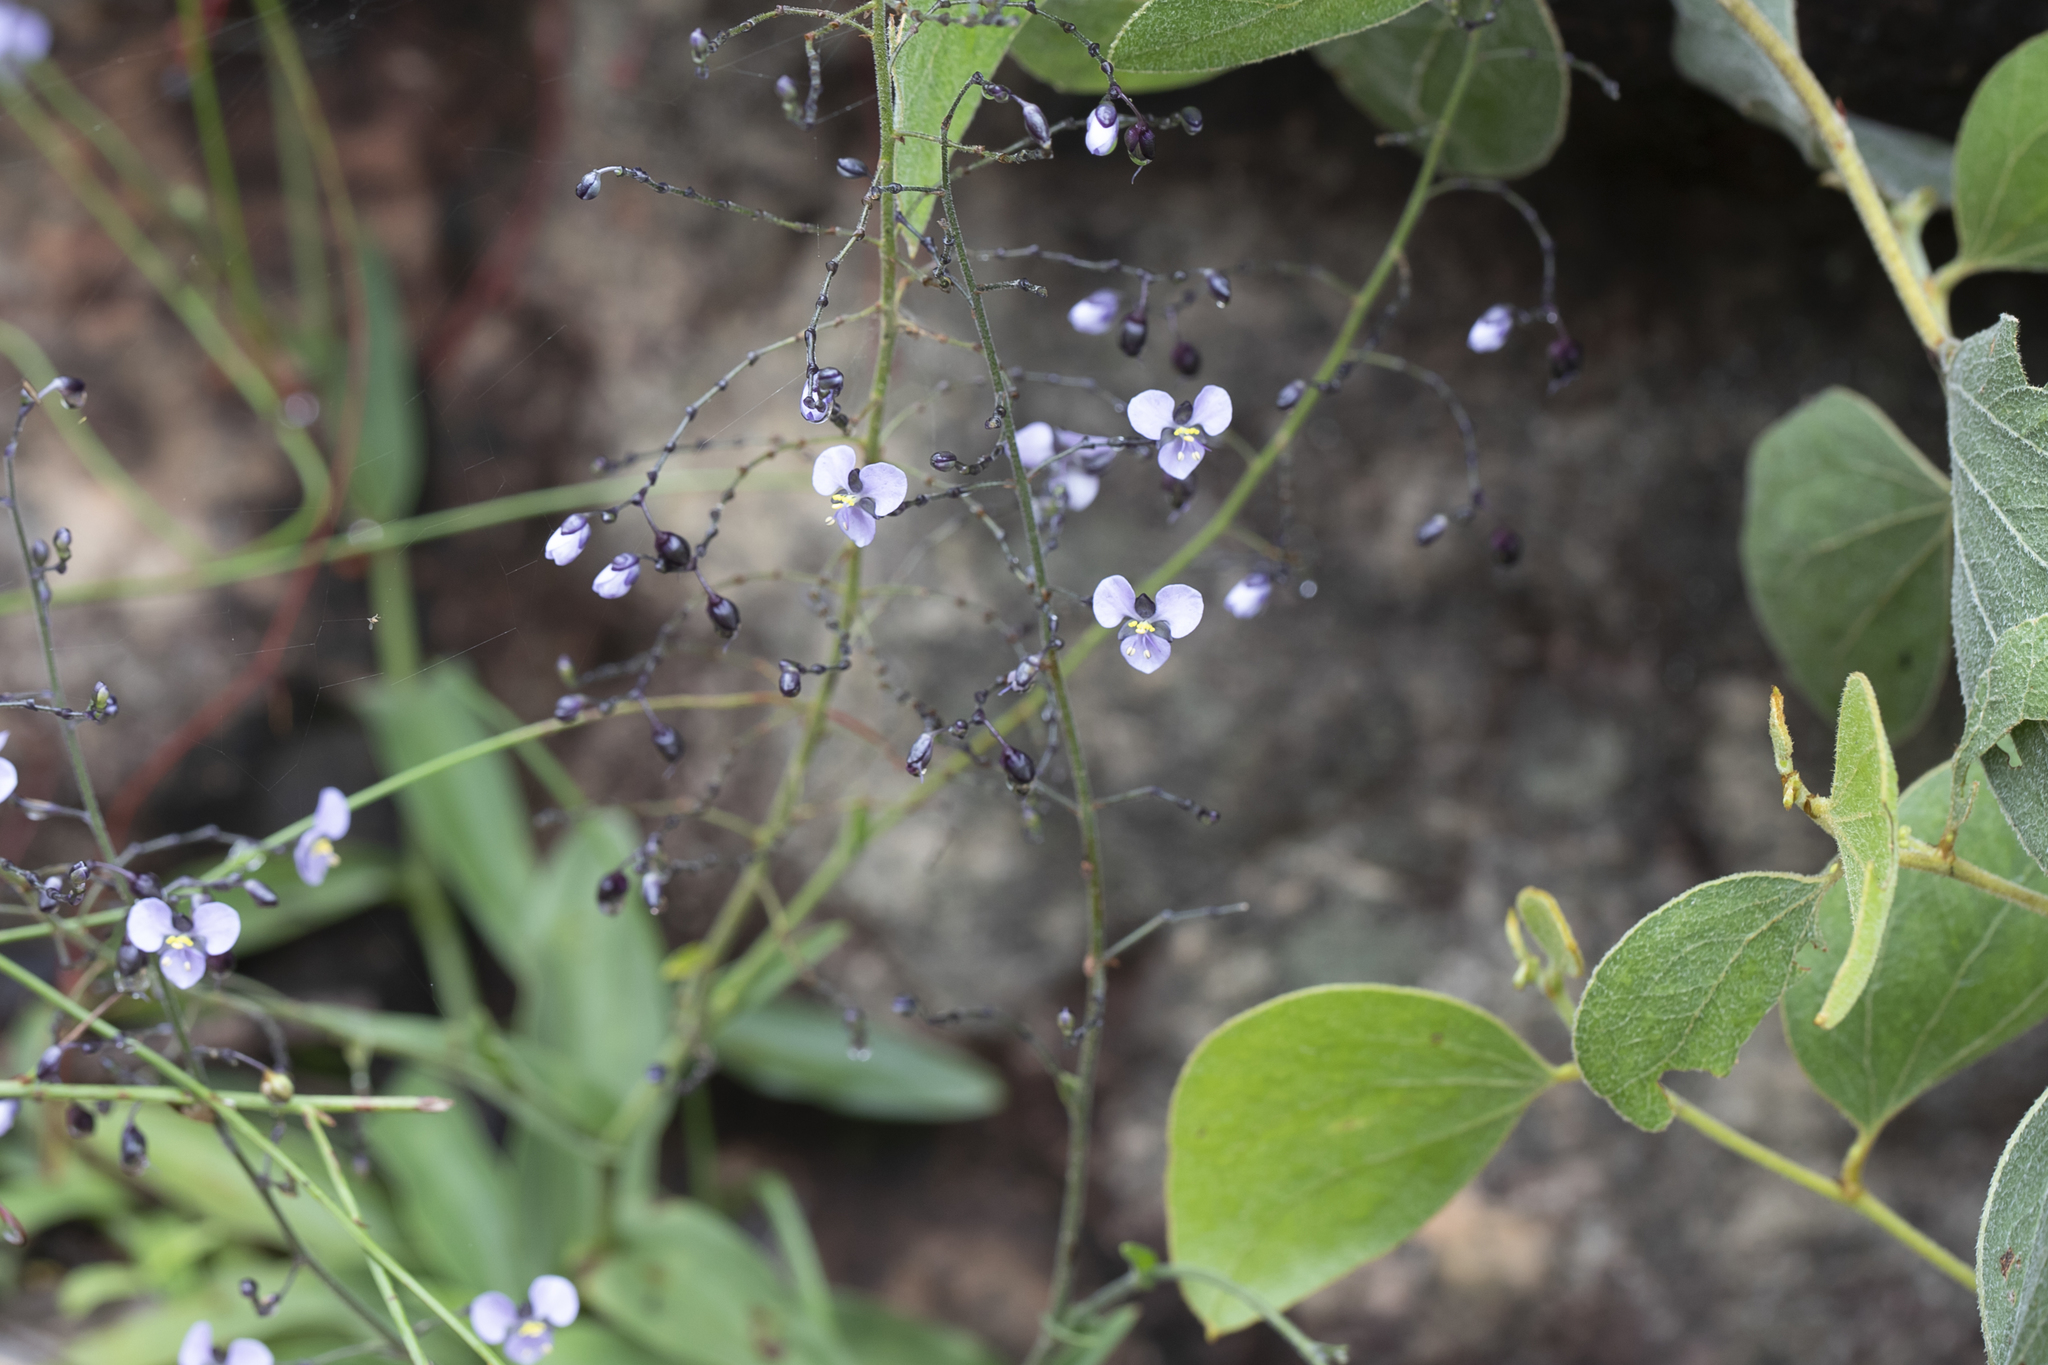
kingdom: Plantae
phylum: Tracheophyta
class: Liliopsida
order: Commelinales
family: Commelinaceae
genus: Aneilema
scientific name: Aneilema siliculosum
